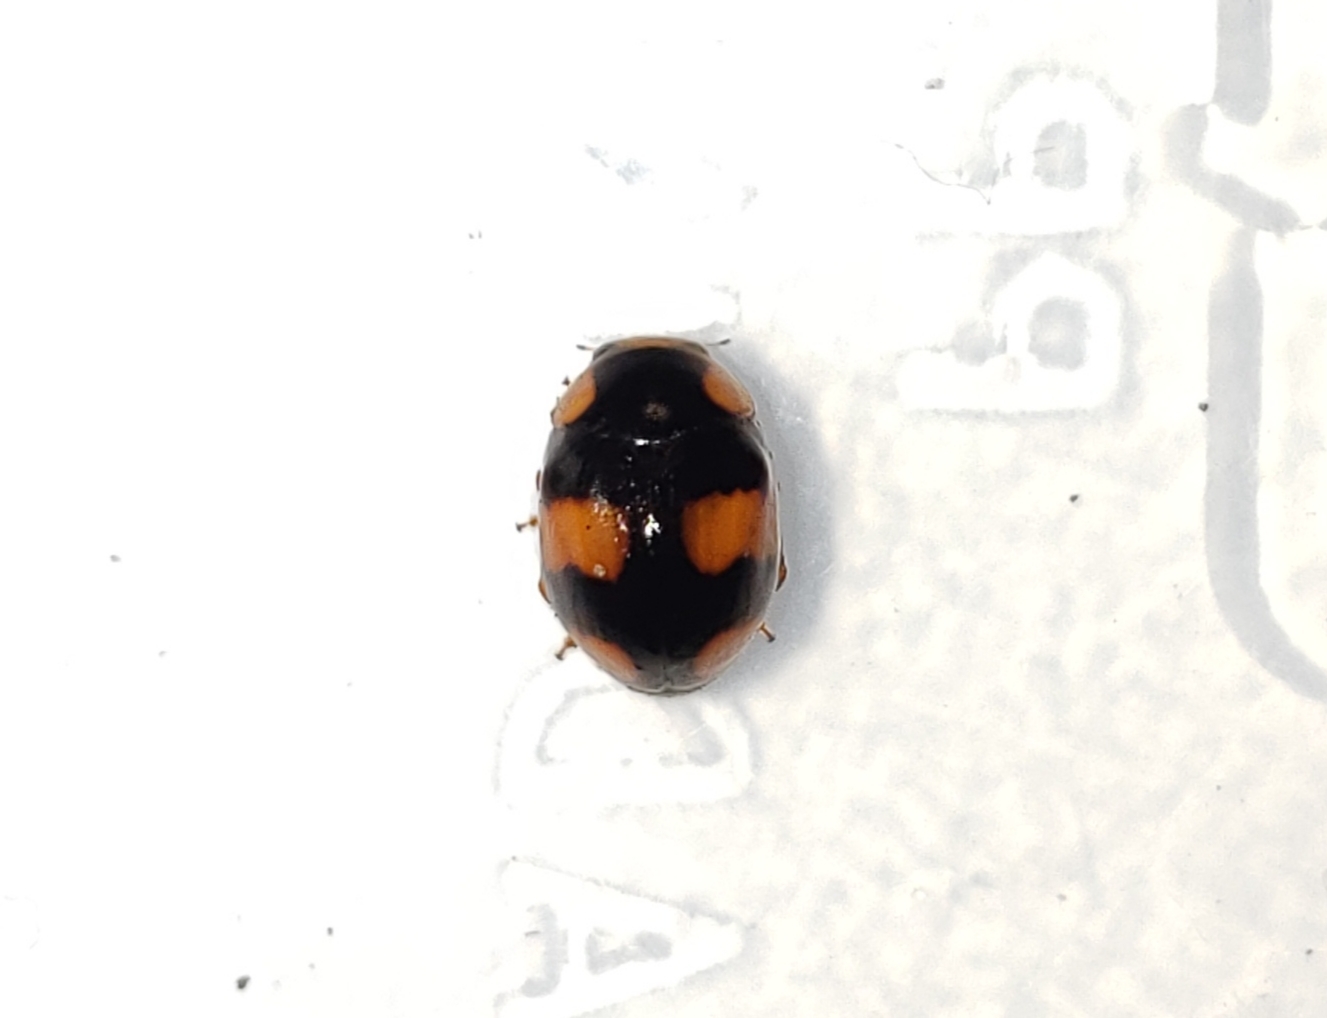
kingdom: Animalia
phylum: Arthropoda
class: Insecta
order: Coleoptera
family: Coccinellidae
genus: Brachiacantha
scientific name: Brachiacantha dentipes
